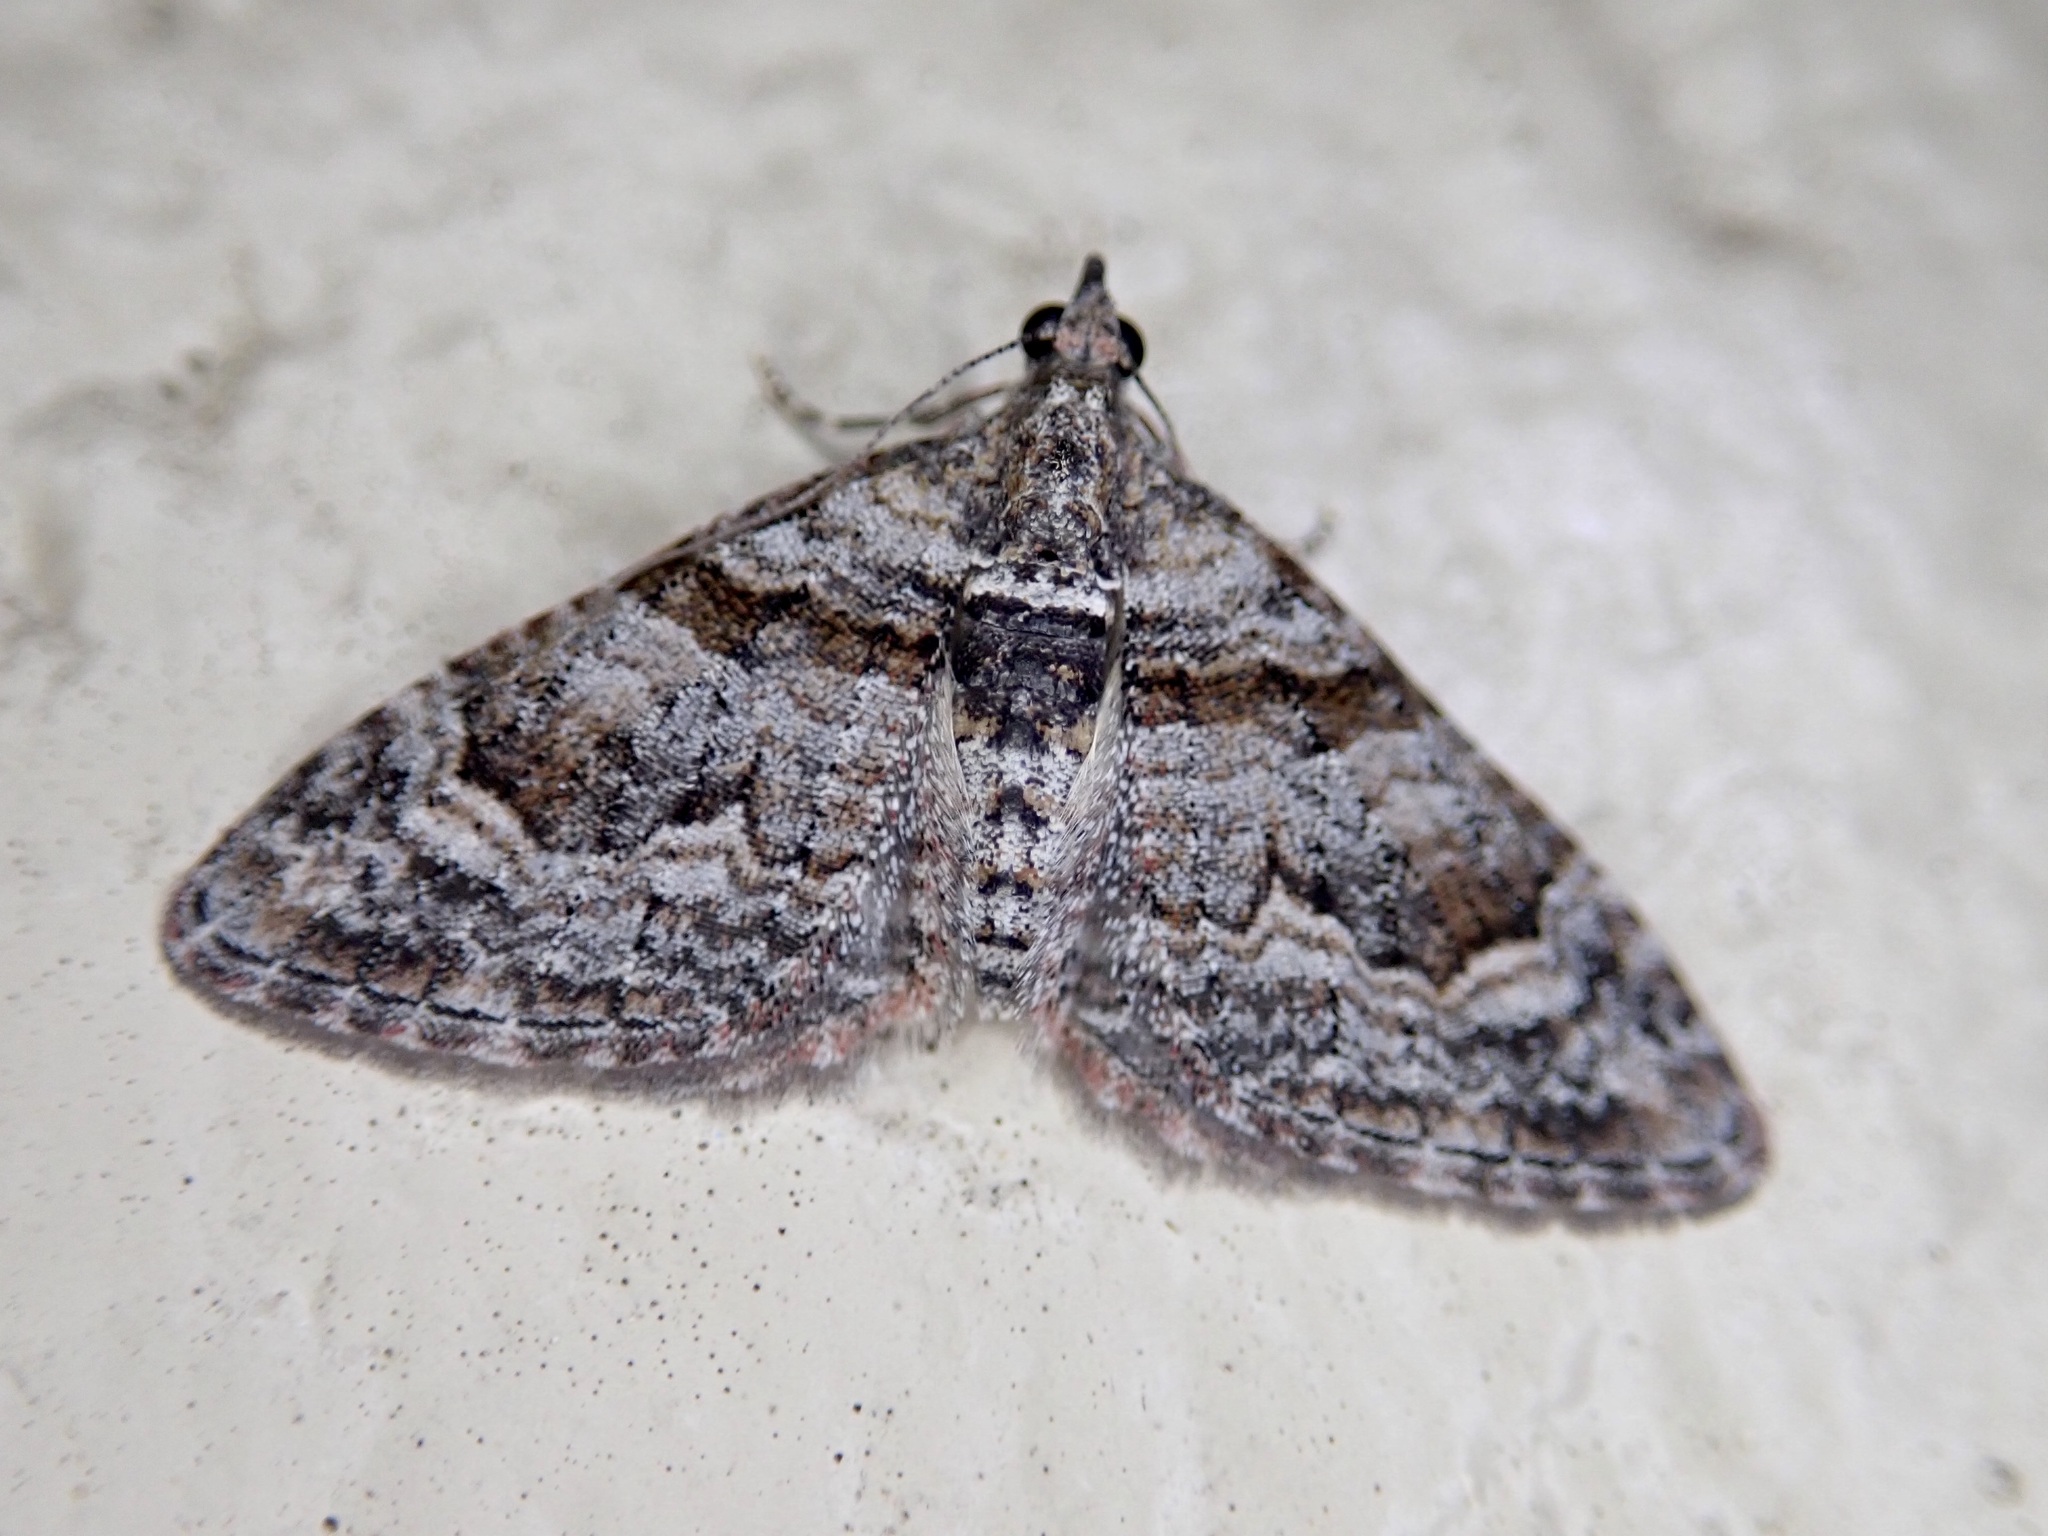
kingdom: Animalia
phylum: Arthropoda
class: Insecta
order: Lepidoptera
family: Geometridae
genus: Phrissogonus
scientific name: Phrissogonus laticostata
